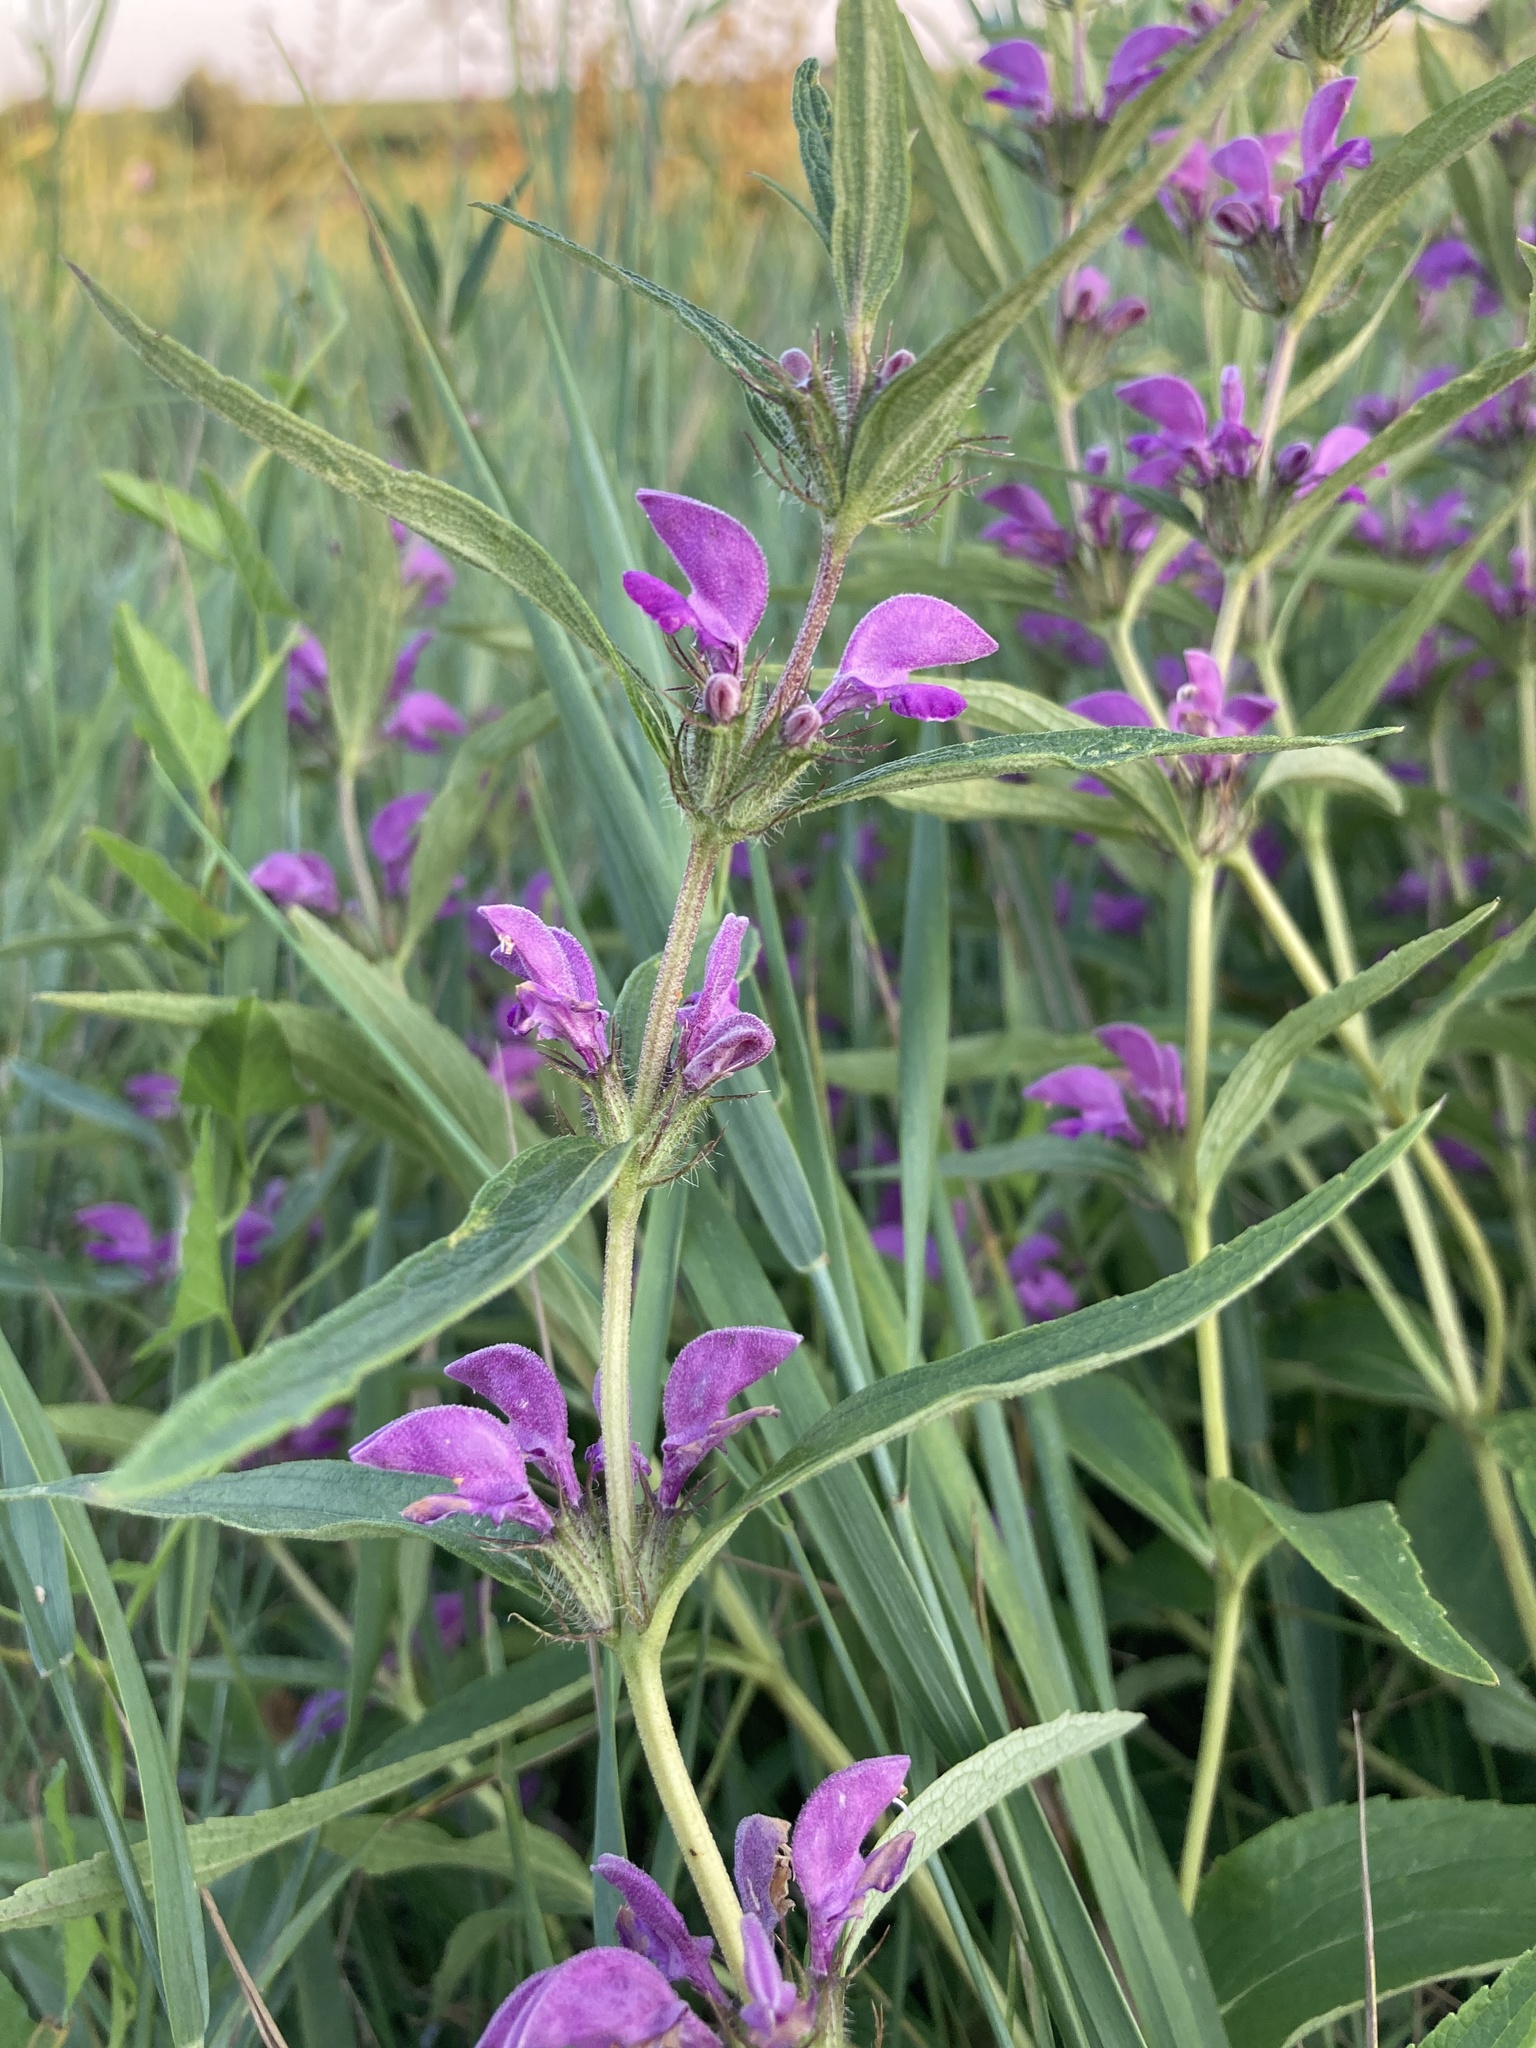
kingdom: Plantae
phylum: Tracheophyta
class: Magnoliopsida
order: Lamiales
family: Lamiaceae
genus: Phlomis
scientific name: Phlomis herba-venti
